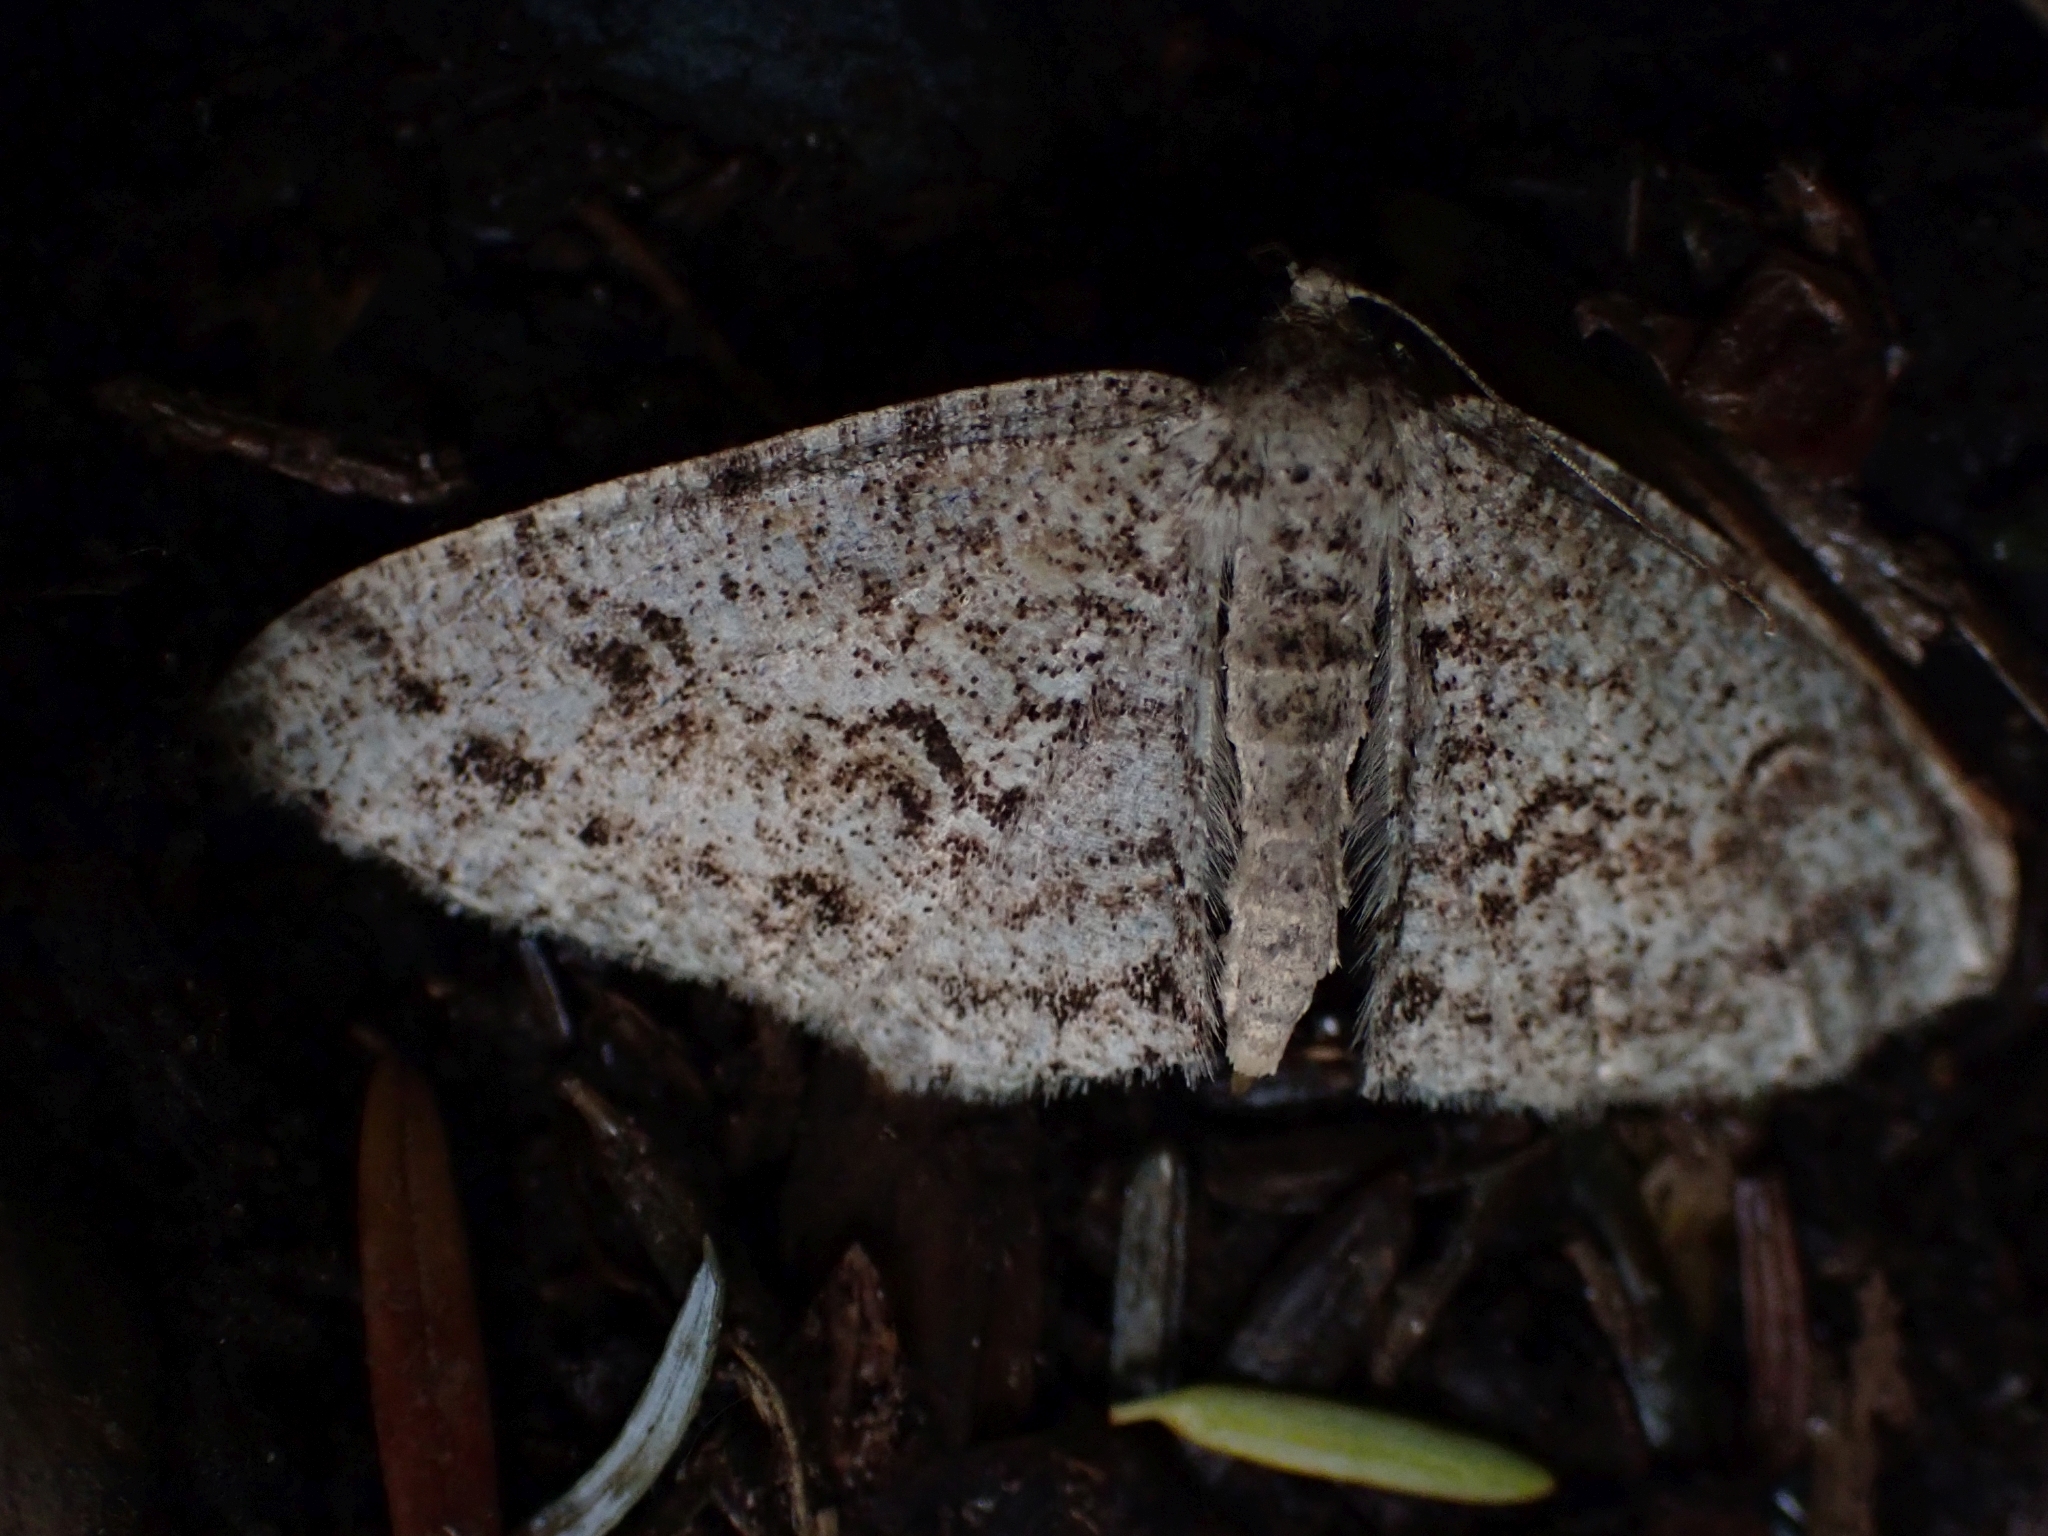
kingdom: Animalia
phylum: Arthropoda
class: Insecta
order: Lepidoptera
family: Geometridae
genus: Melanolophia
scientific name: Melanolophia imitata
